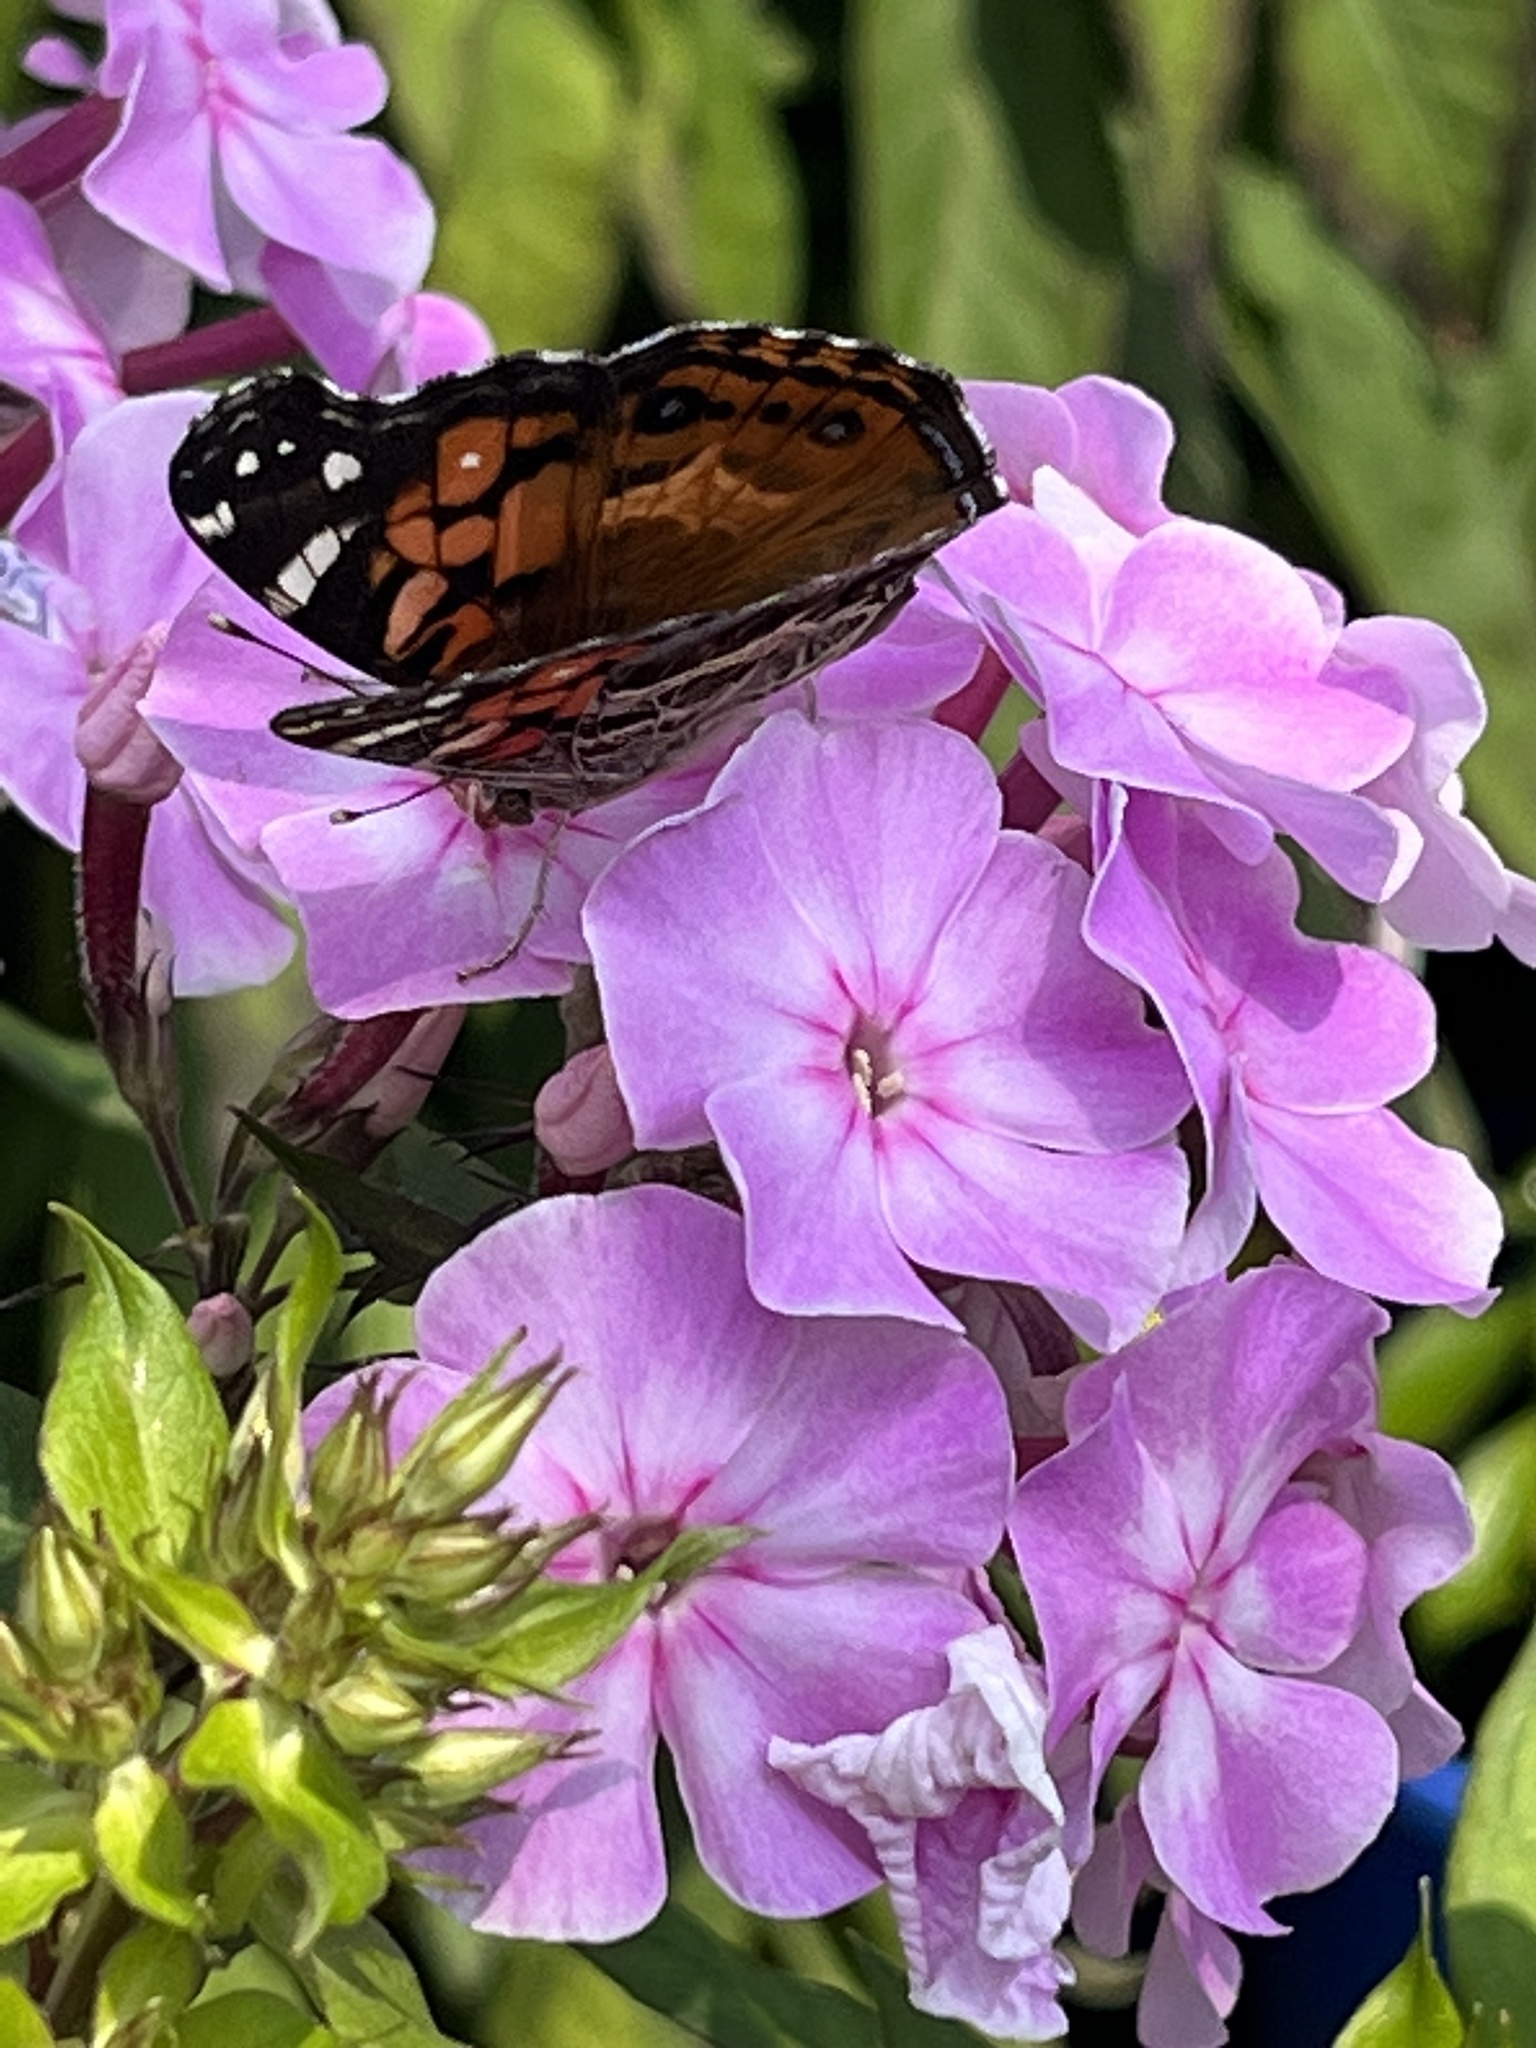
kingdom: Animalia
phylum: Arthropoda
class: Insecta
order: Lepidoptera
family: Nymphalidae
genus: Vanessa
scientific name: Vanessa virginiensis
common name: American lady
